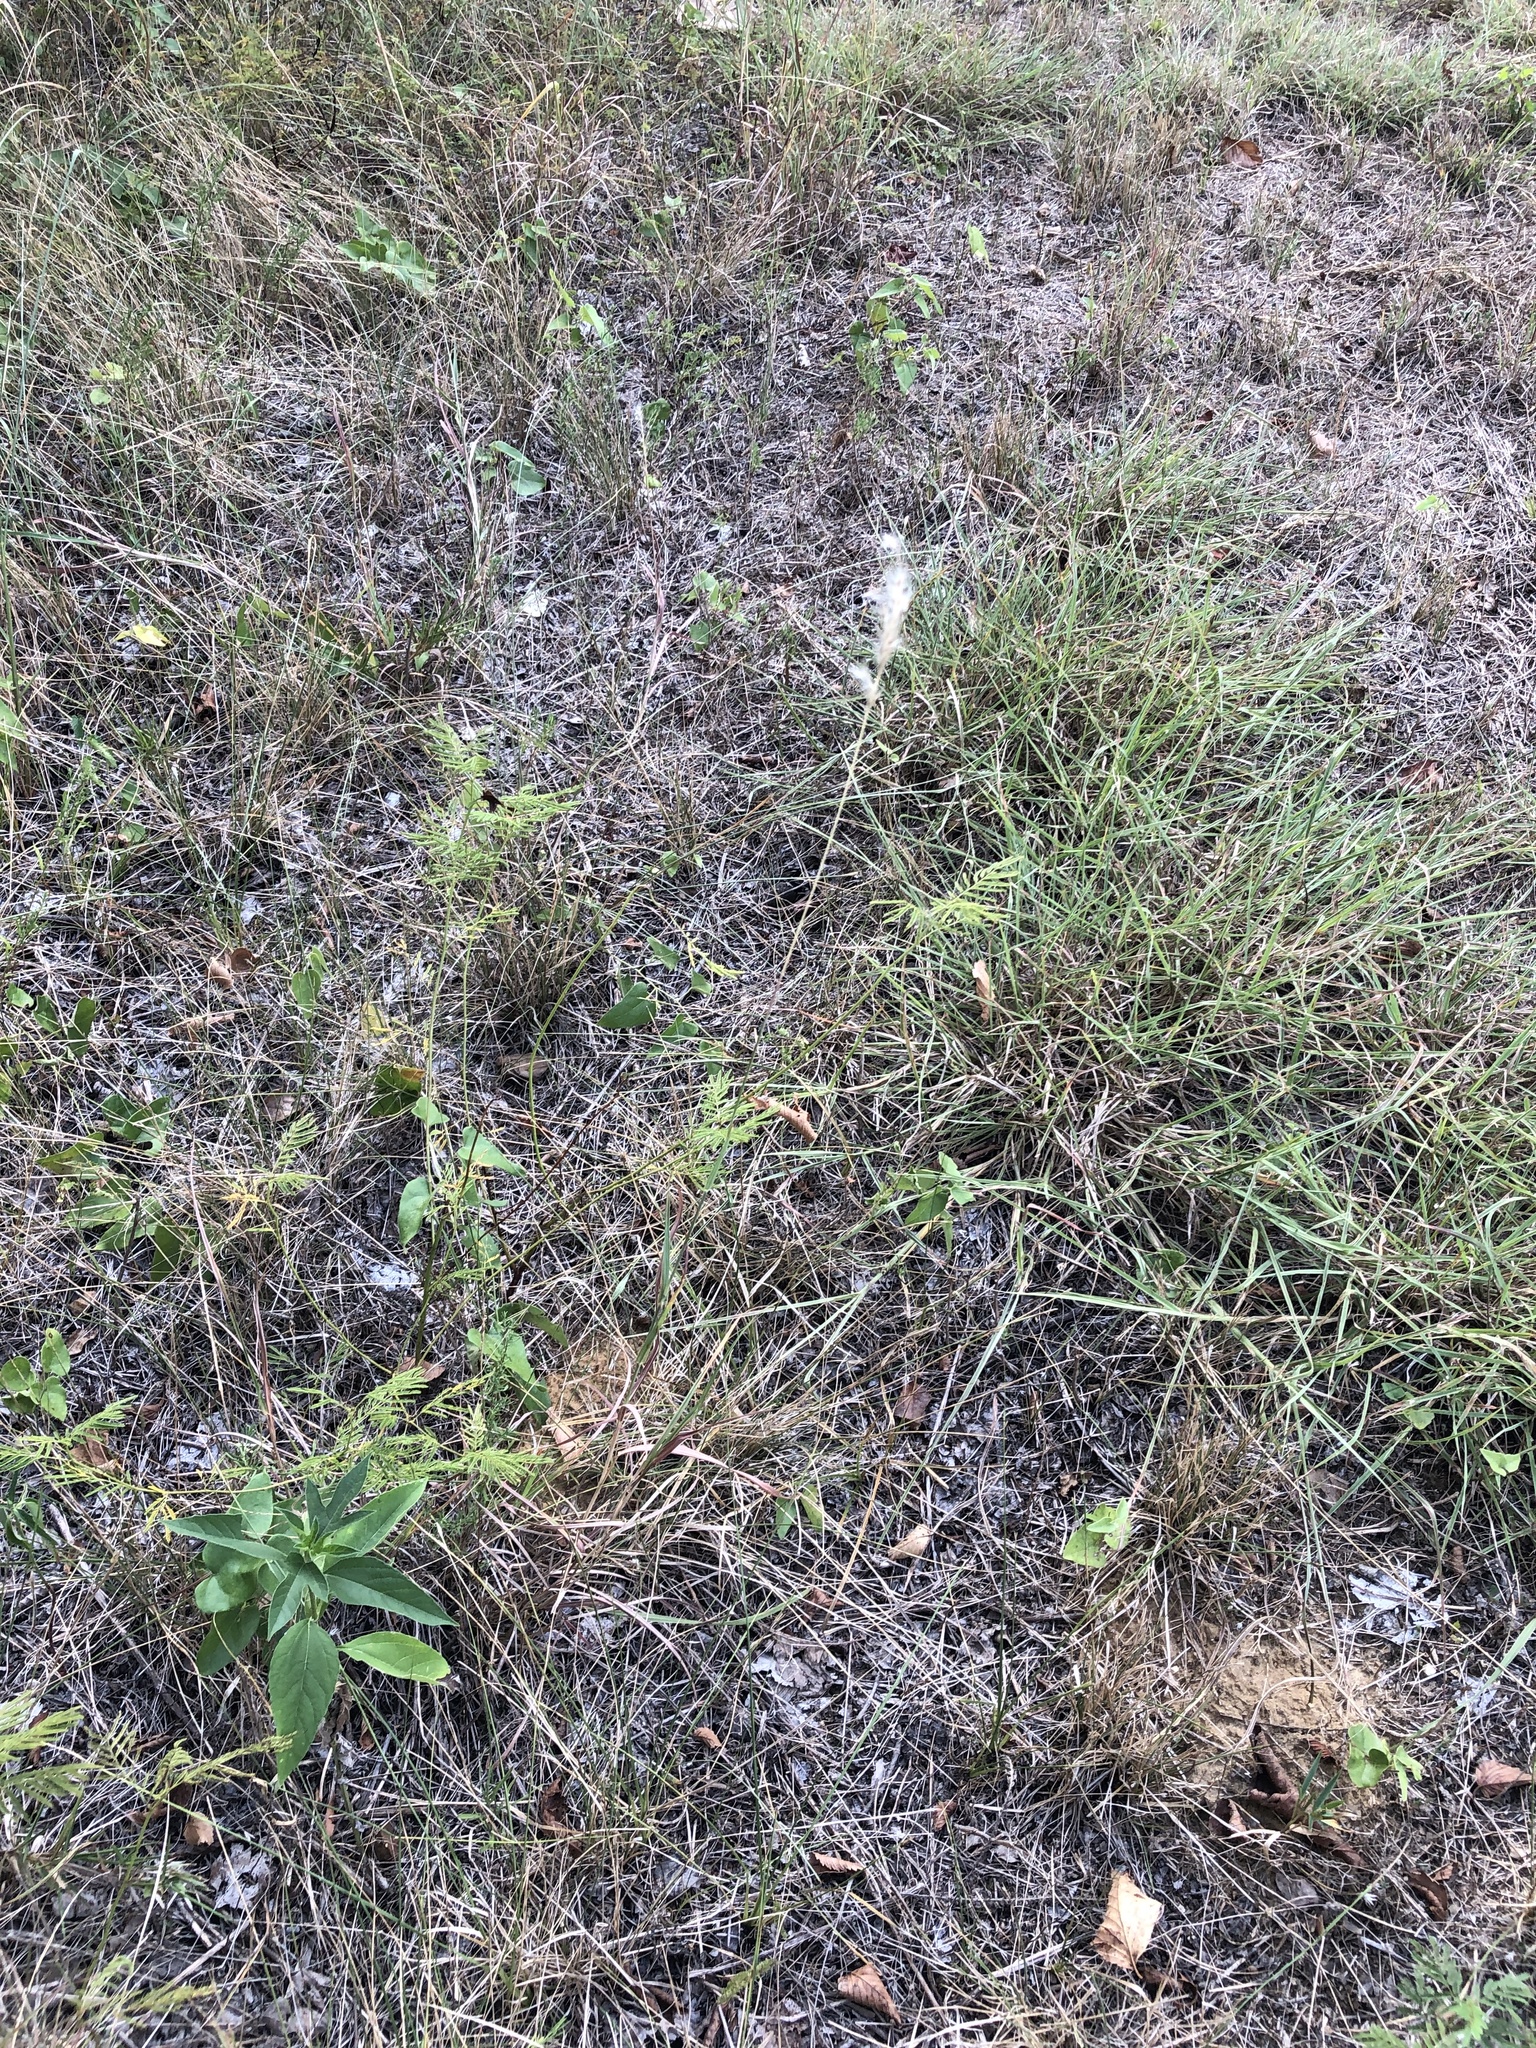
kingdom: Plantae
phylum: Tracheophyta
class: Liliopsida
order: Poales
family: Poaceae
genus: Bothriochloa
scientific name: Bothriochloa torreyana
